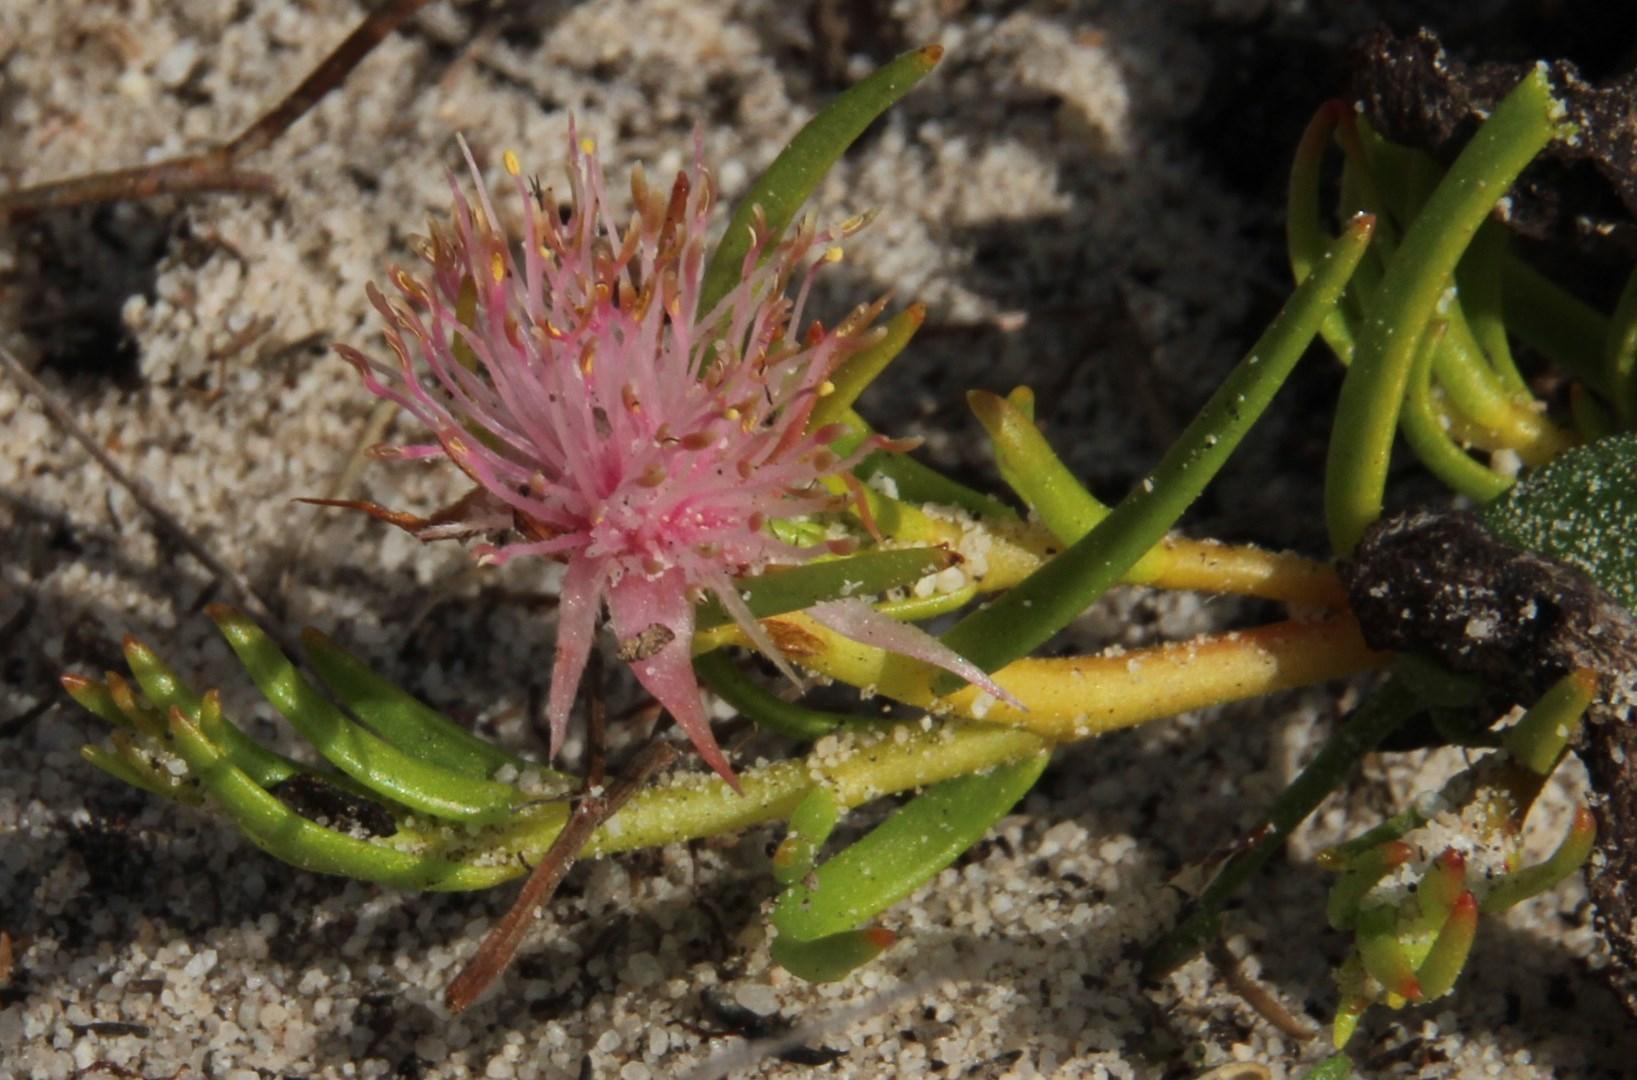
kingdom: Plantae
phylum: Tracheophyta
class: Magnoliopsida
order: Proteales
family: Proteaceae
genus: Diastella
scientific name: Diastella buekii
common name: Franschhoek silkypuff
